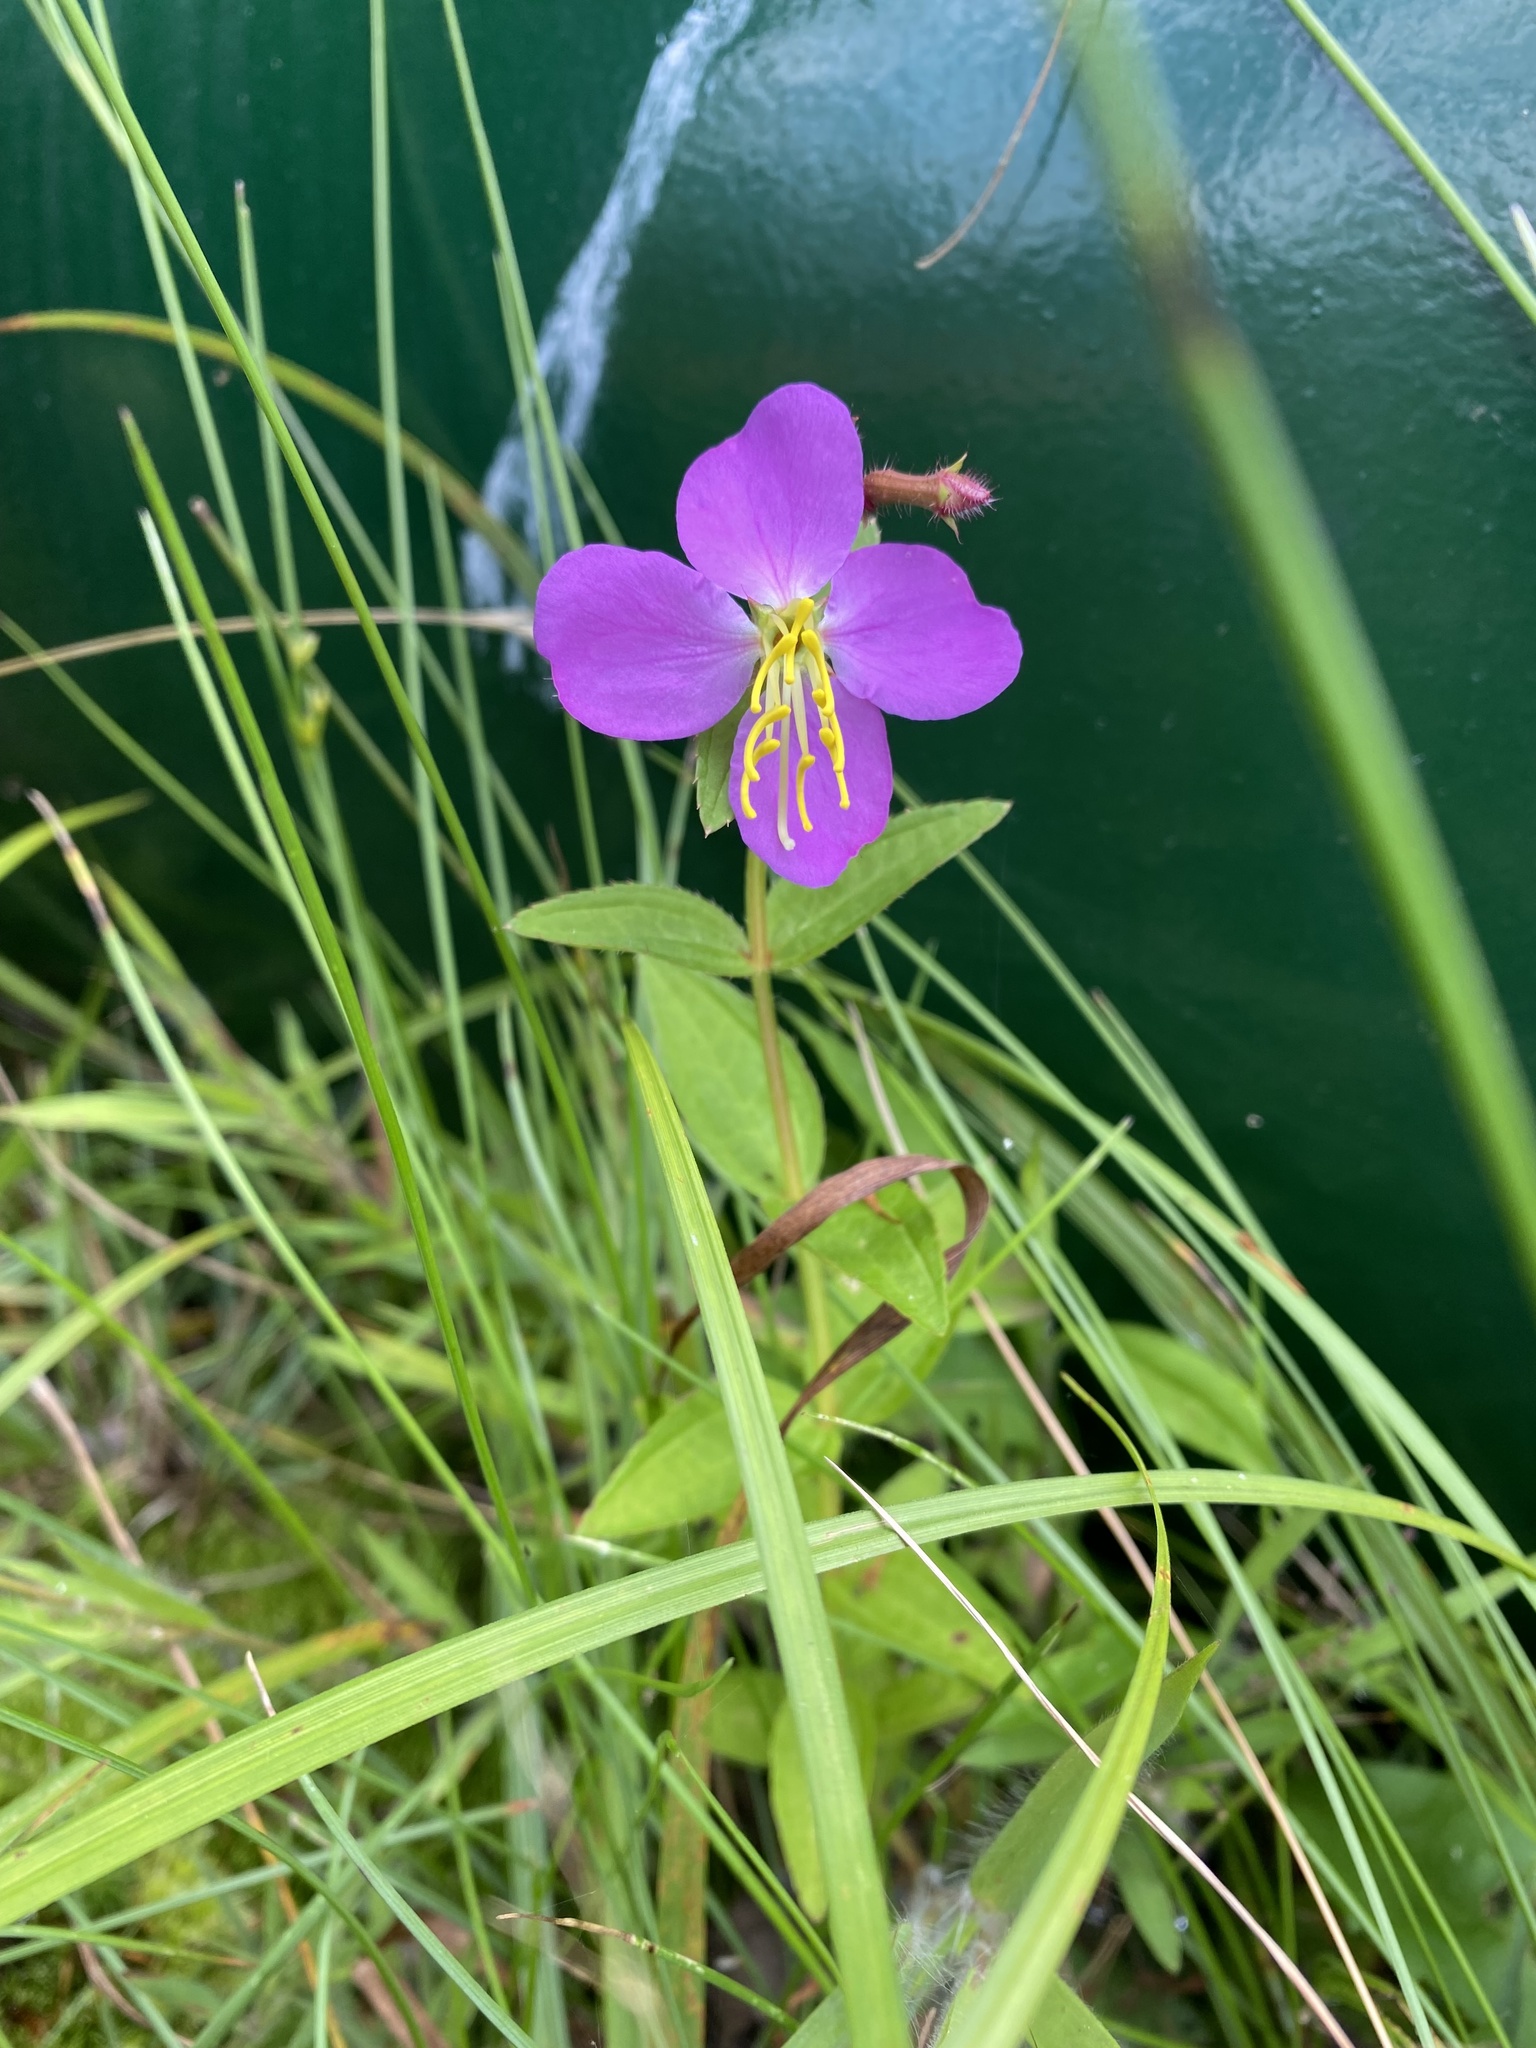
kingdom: Plantae
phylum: Tracheophyta
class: Magnoliopsida
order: Myrtales
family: Melastomataceae
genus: Rhexia
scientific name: Rhexia virginica
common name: Common meadow beauty
